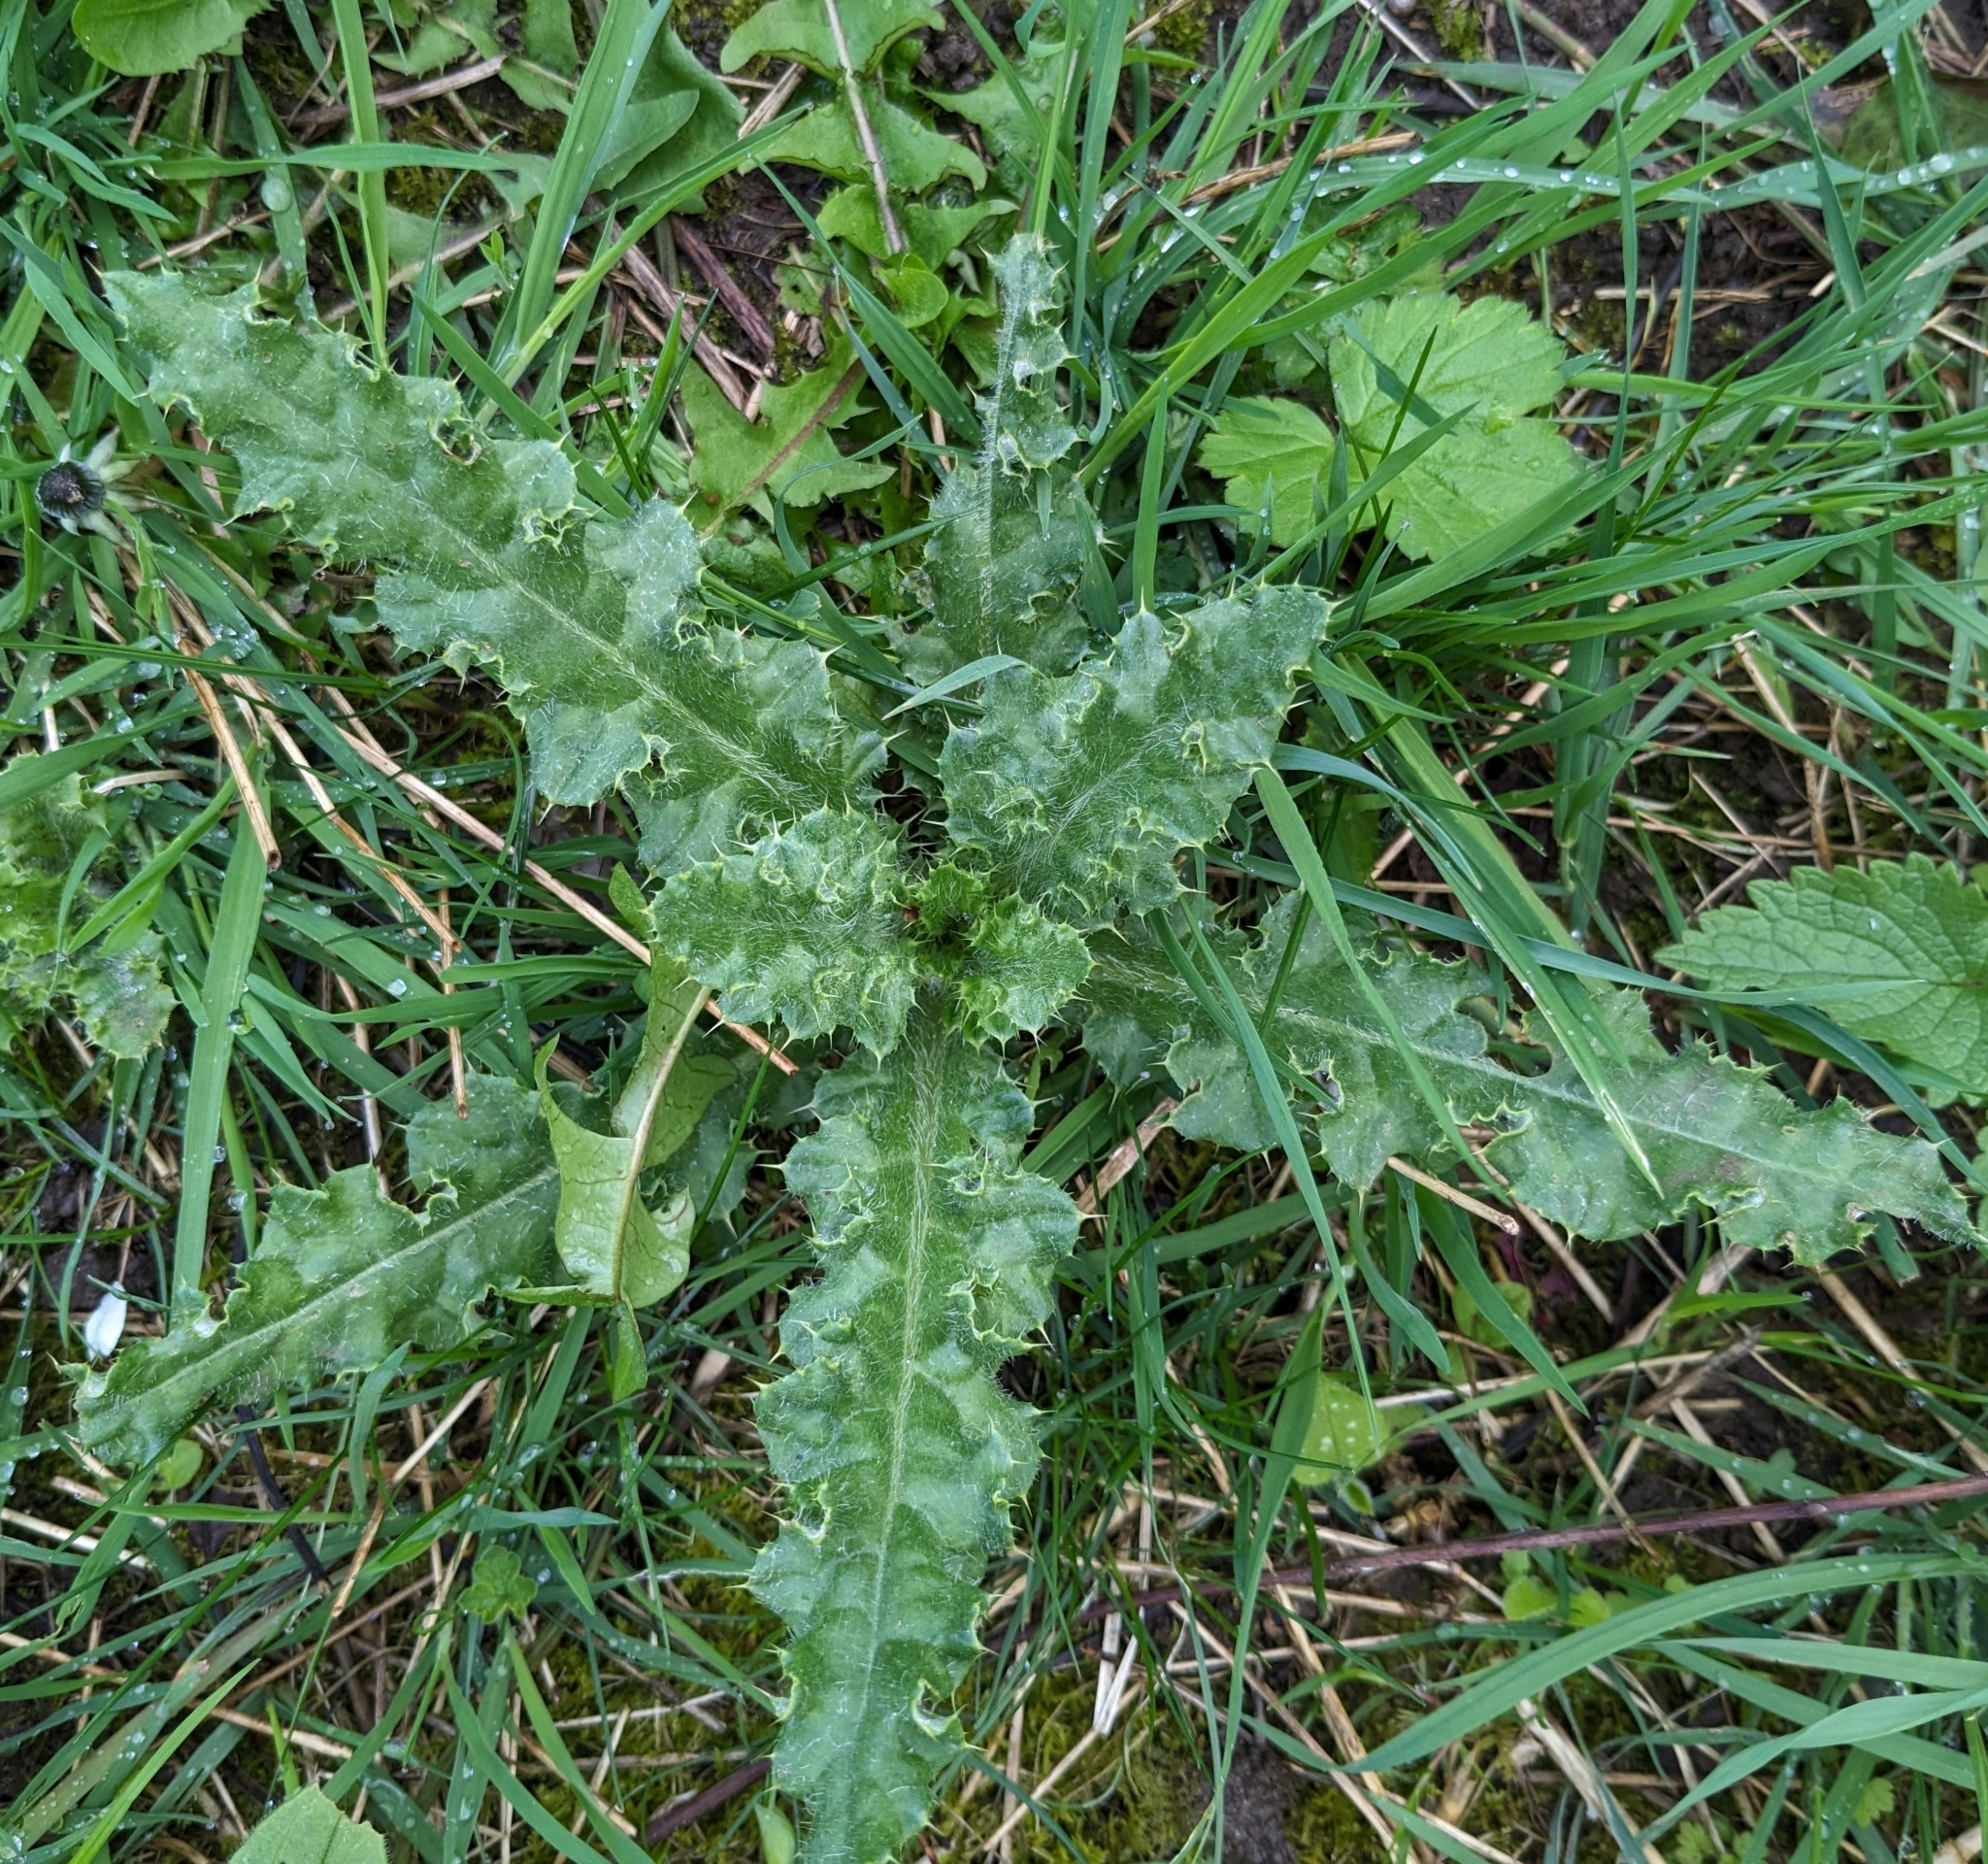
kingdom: Plantae
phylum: Tracheophyta
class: Magnoliopsida
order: Asterales
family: Asteraceae
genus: Cirsium
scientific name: Cirsium arvense
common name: Creeping thistle
